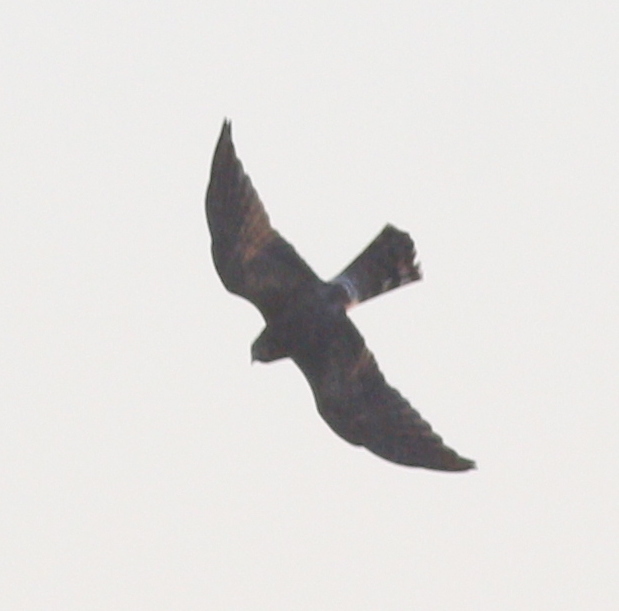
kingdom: Animalia
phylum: Chordata
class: Aves
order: Accipitriformes
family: Accipitridae
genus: Circus
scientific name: Circus macrourus
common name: Pallid harrier
